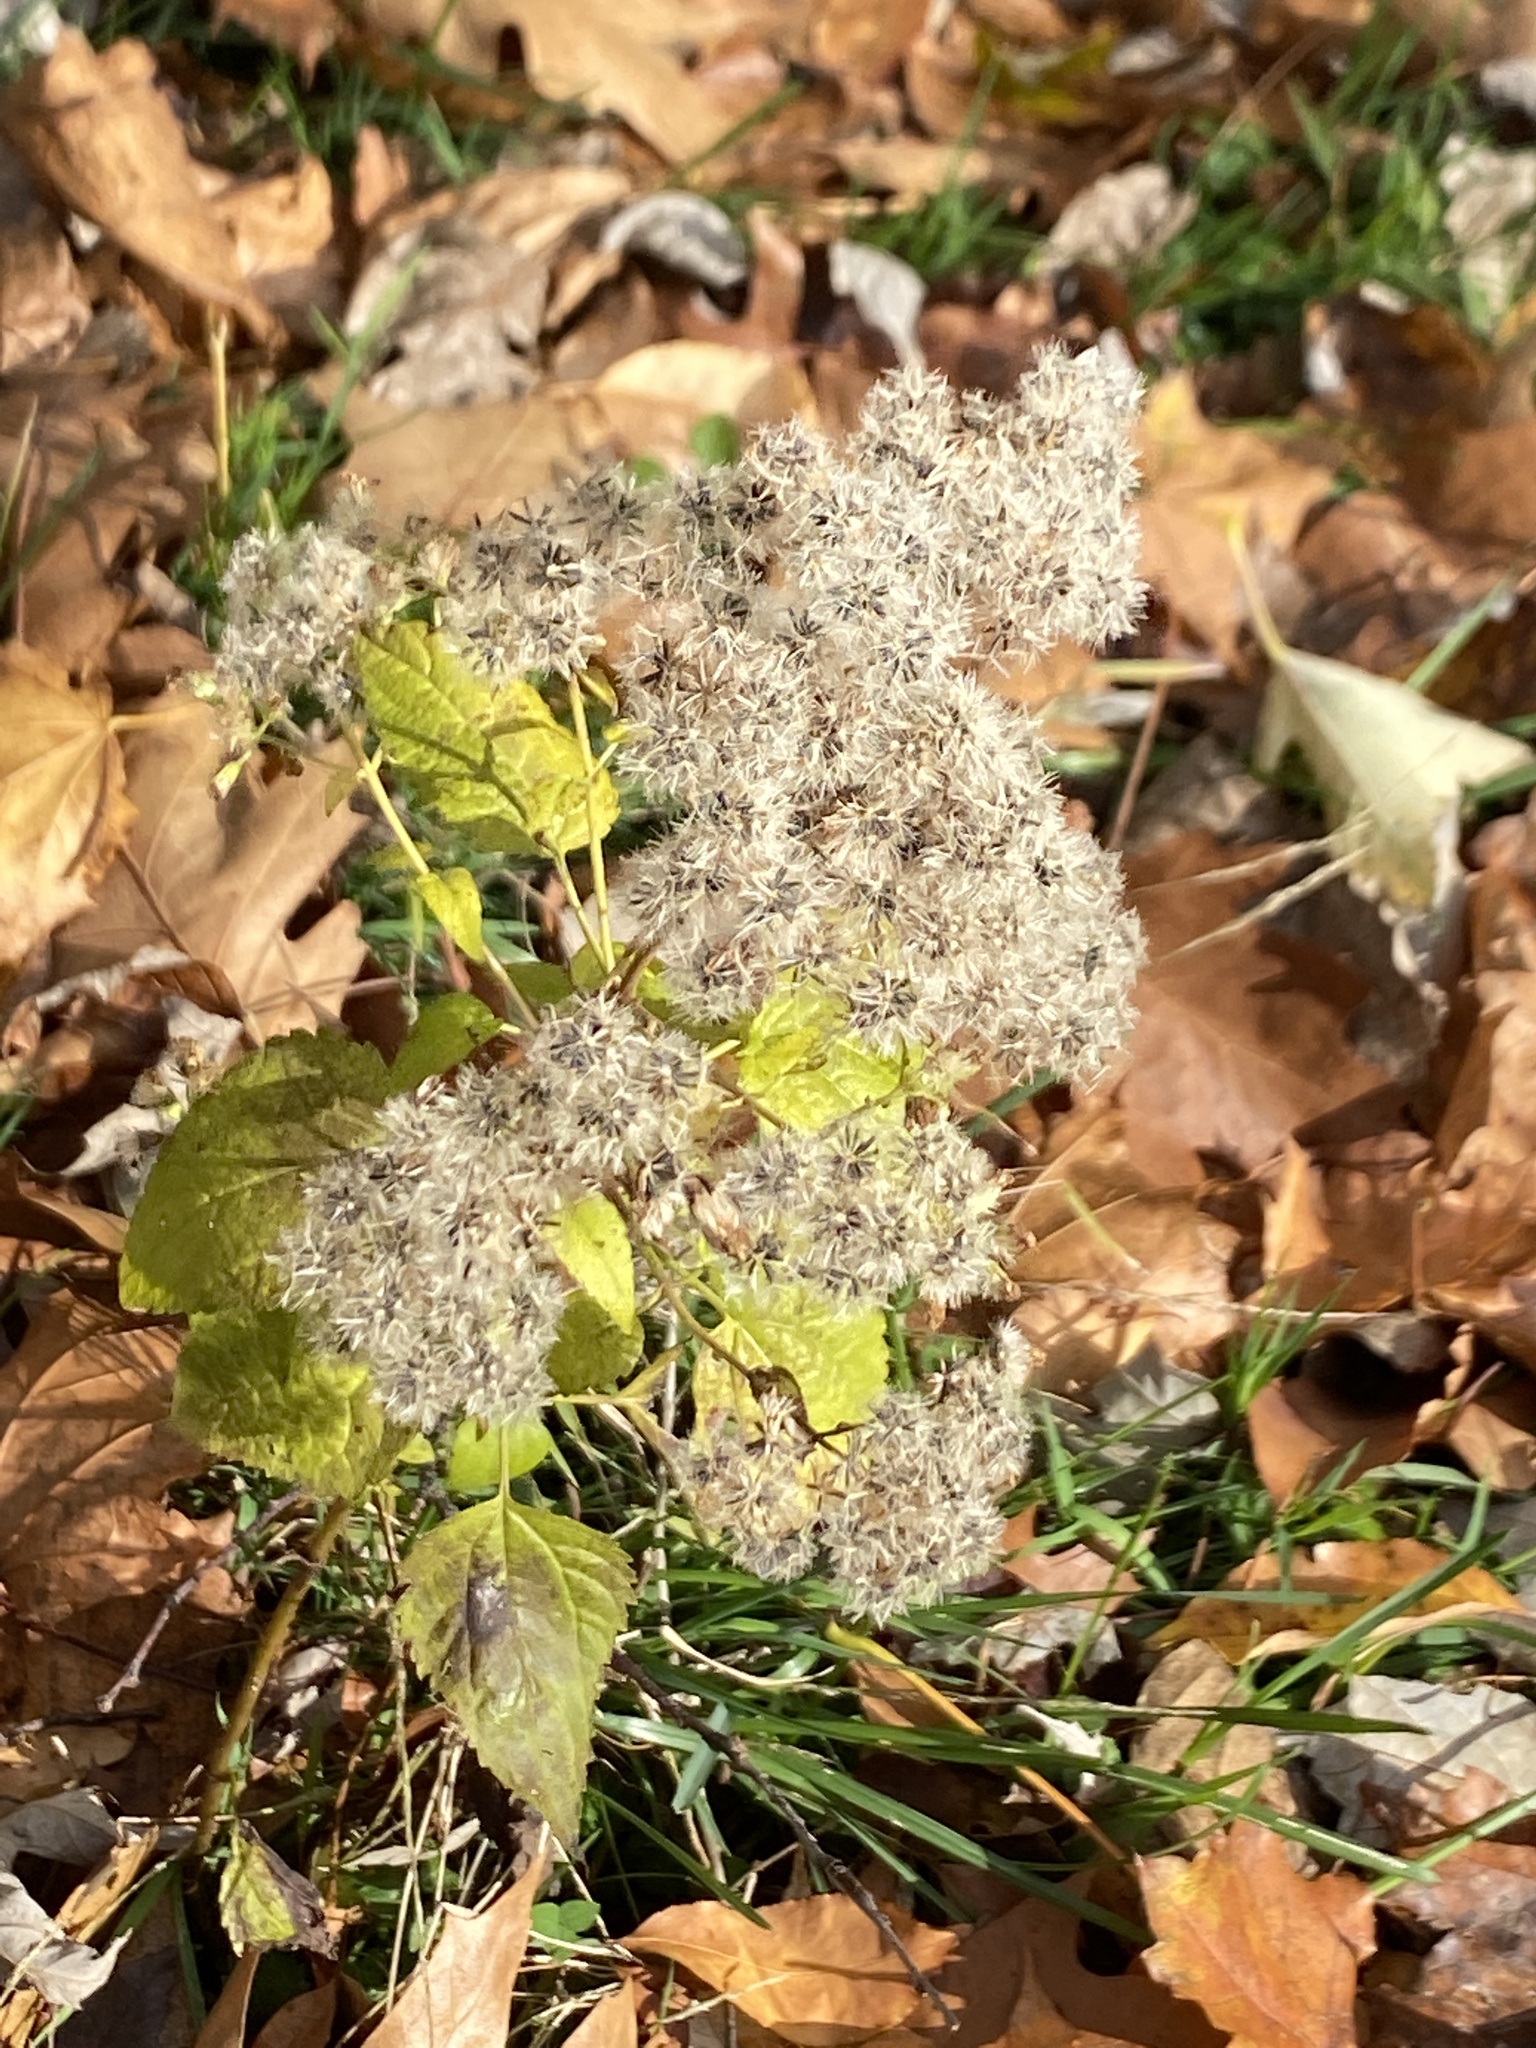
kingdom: Plantae
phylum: Tracheophyta
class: Magnoliopsida
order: Asterales
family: Asteraceae
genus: Ageratina
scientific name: Ageratina altissima
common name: White snakeroot
